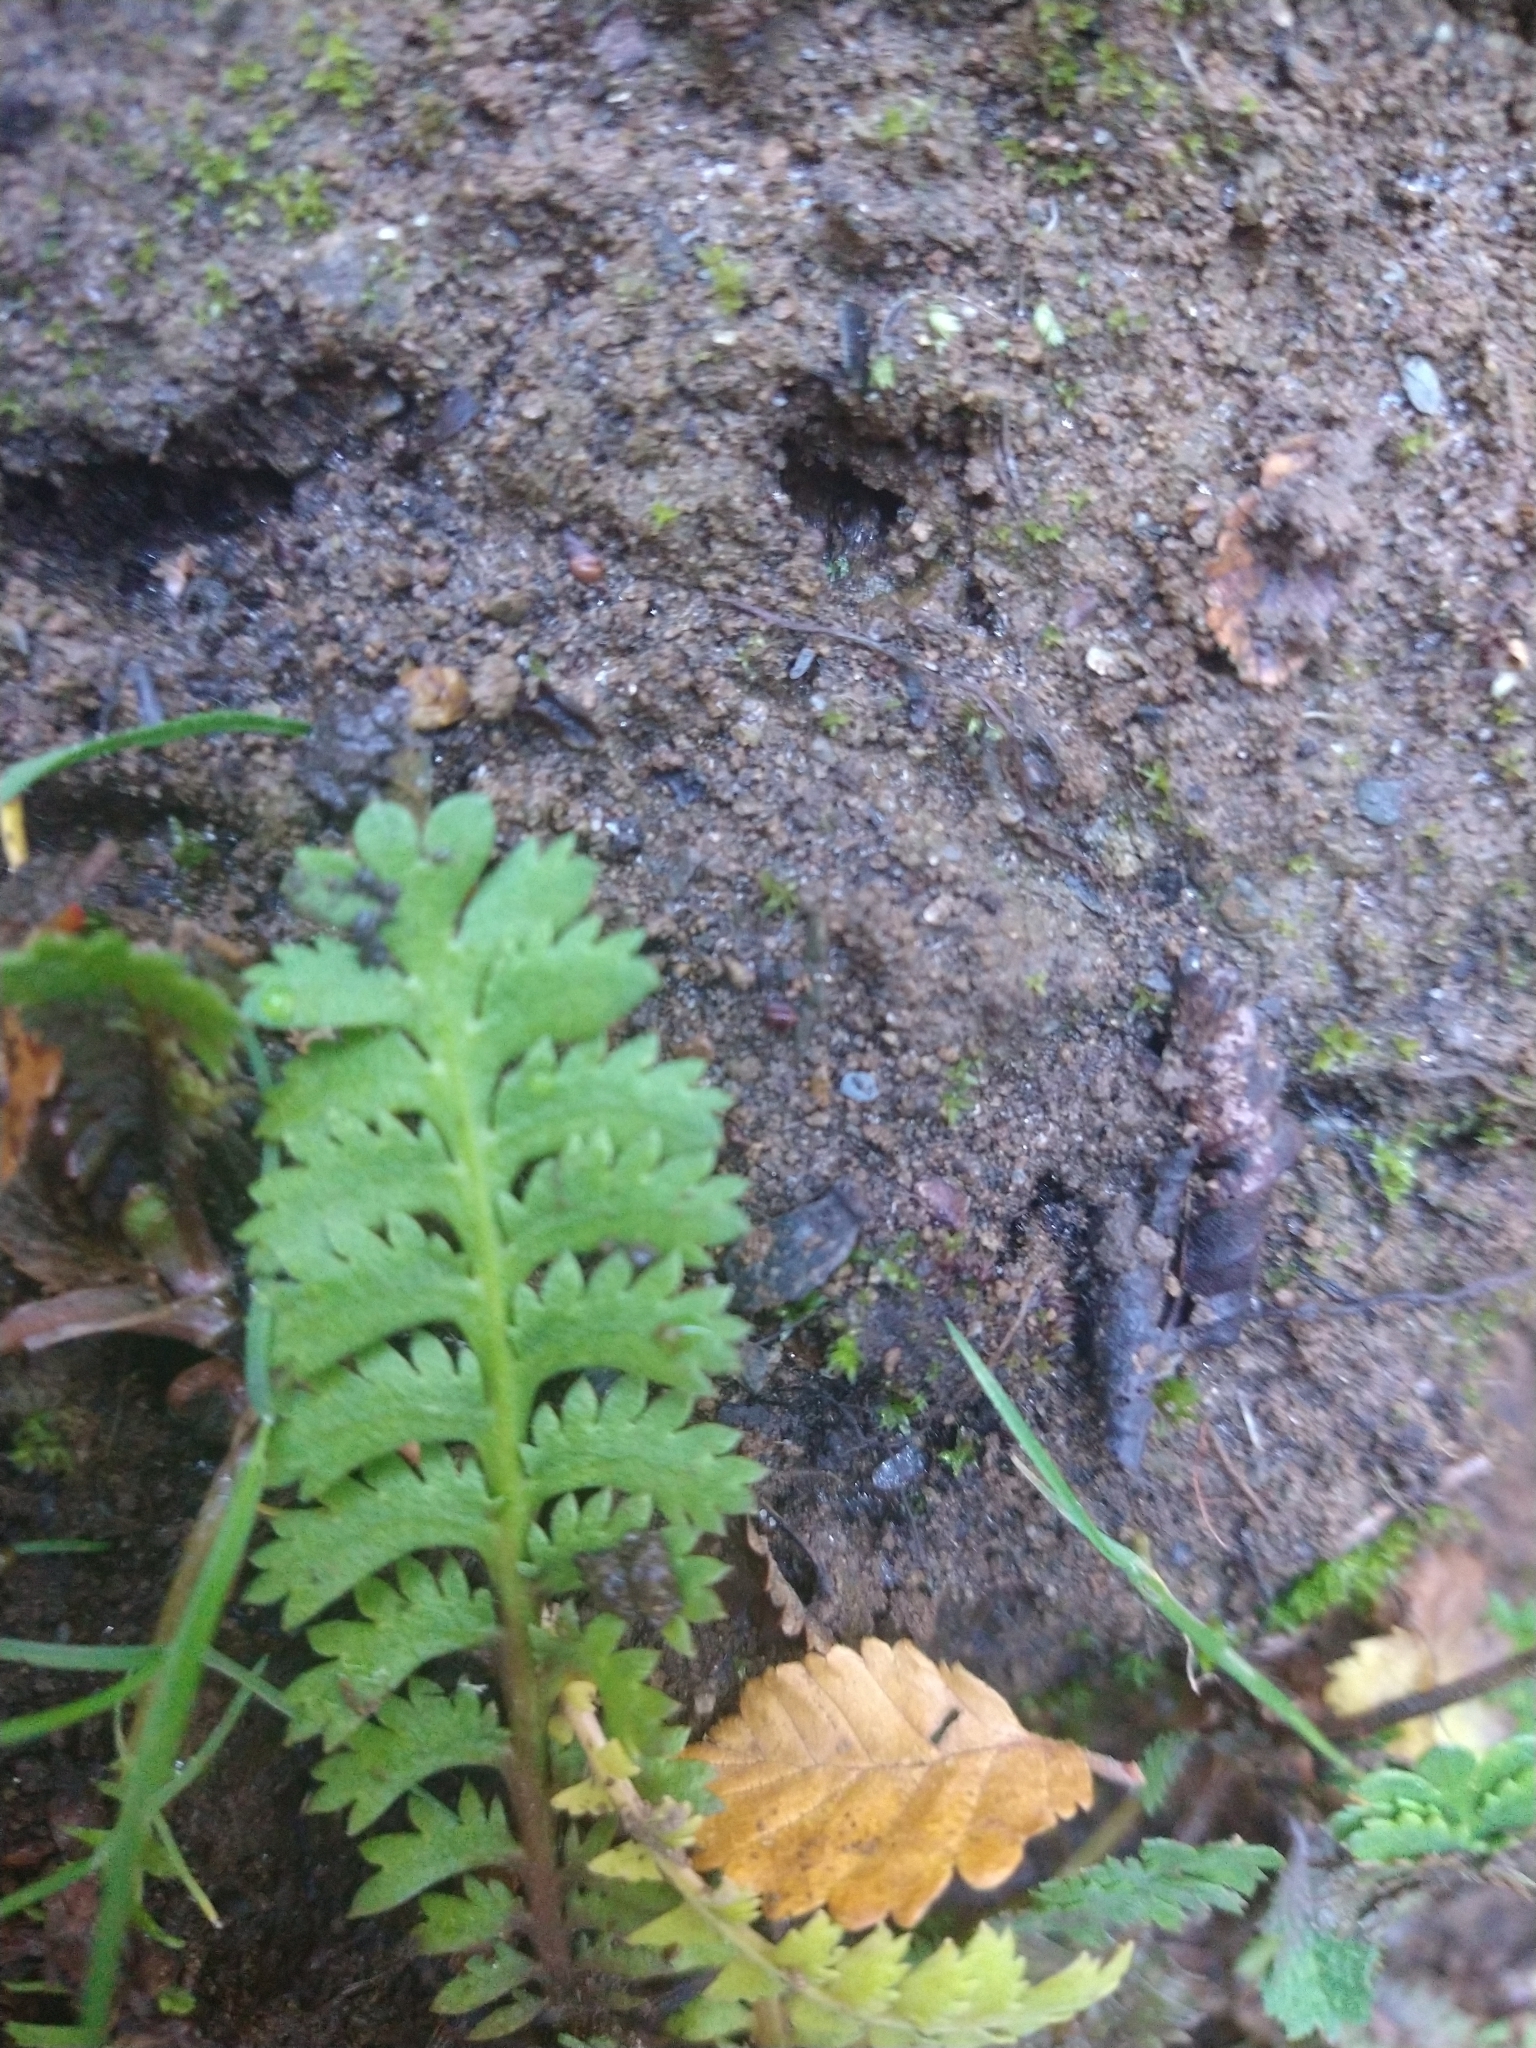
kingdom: Plantae
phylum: Tracheophyta
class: Magnoliopsida
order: Asterales
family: Asteraceae
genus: Leptinella
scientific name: Leptinella scariosa
